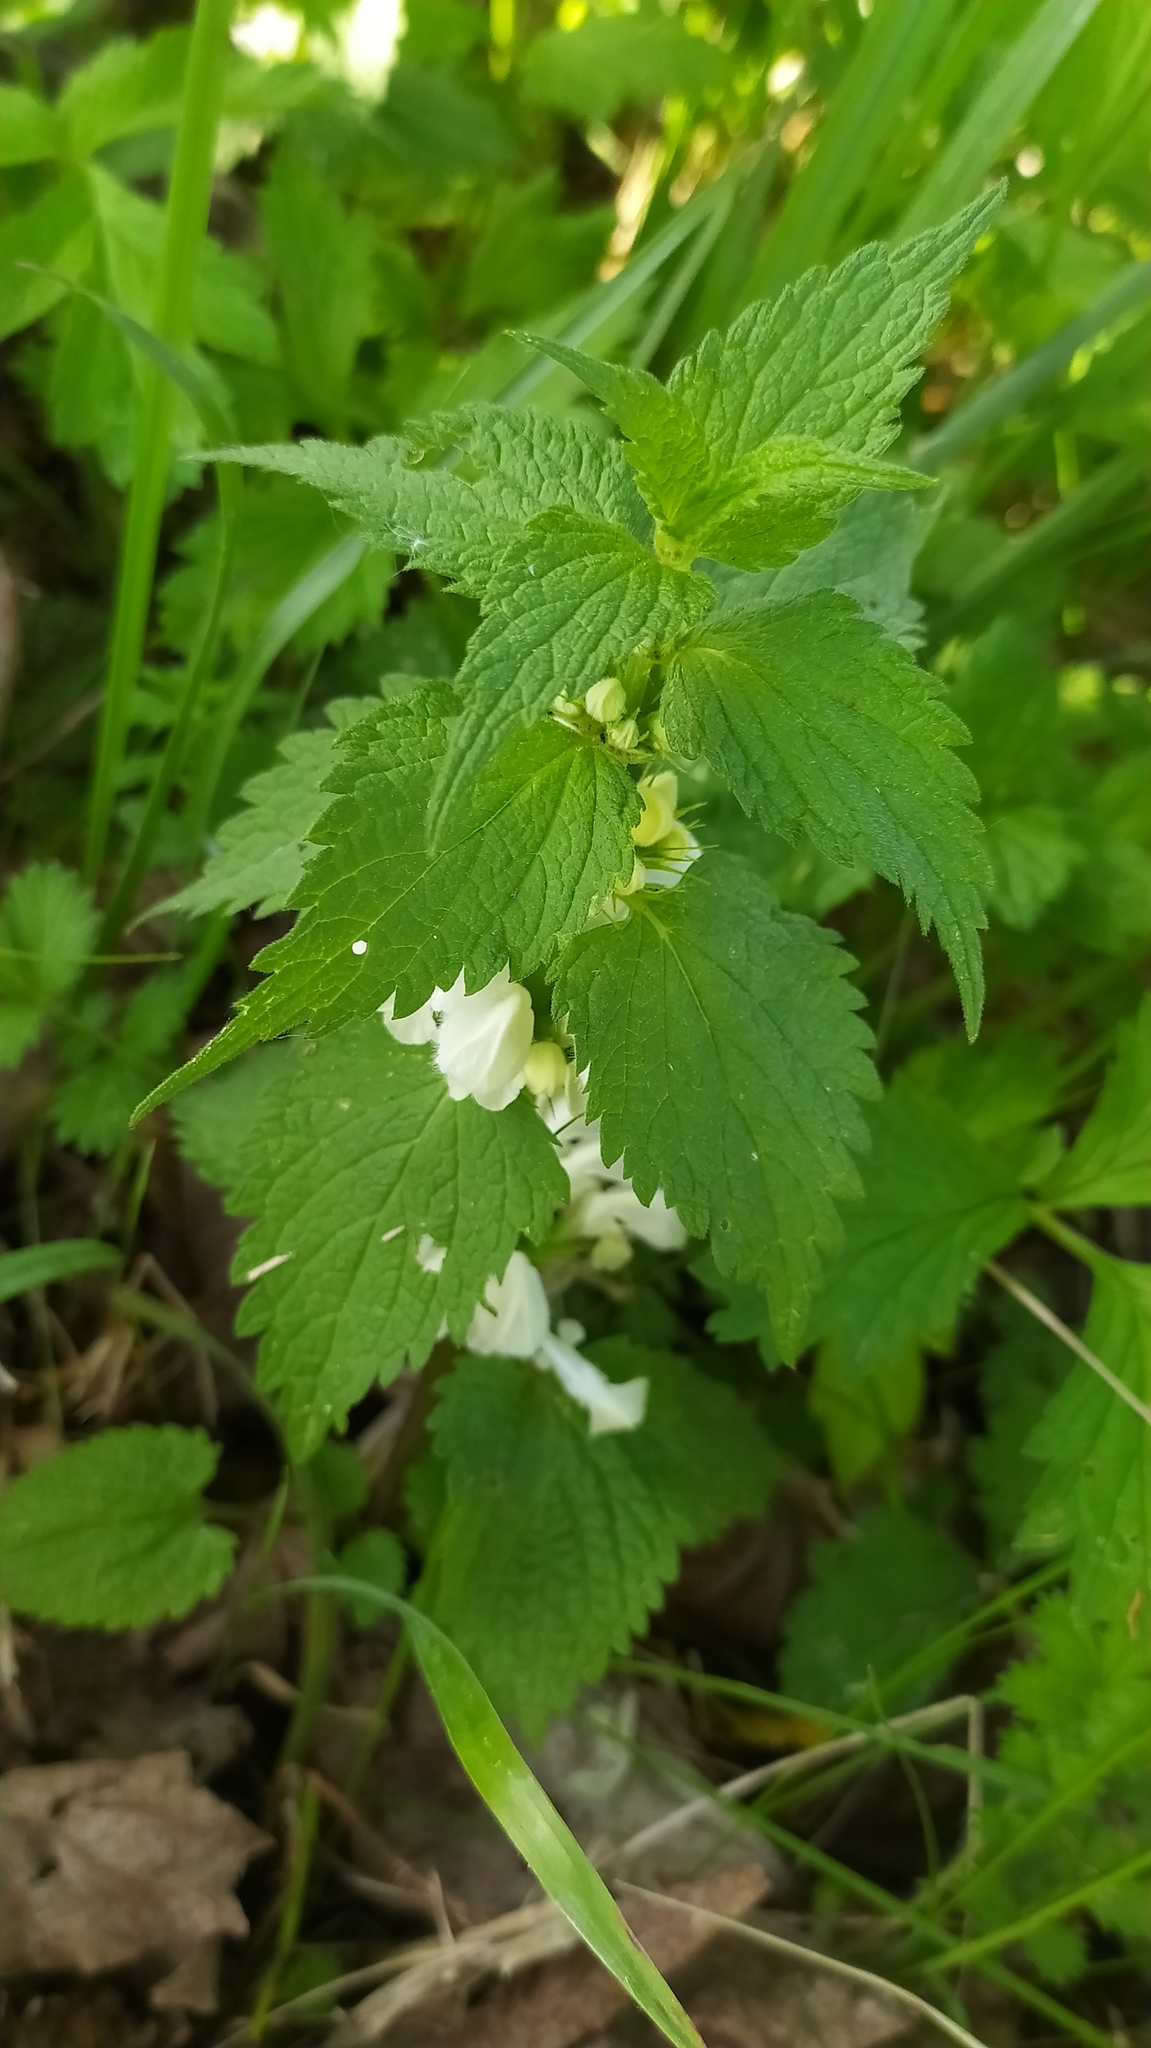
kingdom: Plantae
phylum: Tracheophyta
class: Magnoliopsida
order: Lamiales
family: Lamiaceae
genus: Lamium
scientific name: Lamium album
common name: White dead-nettle
